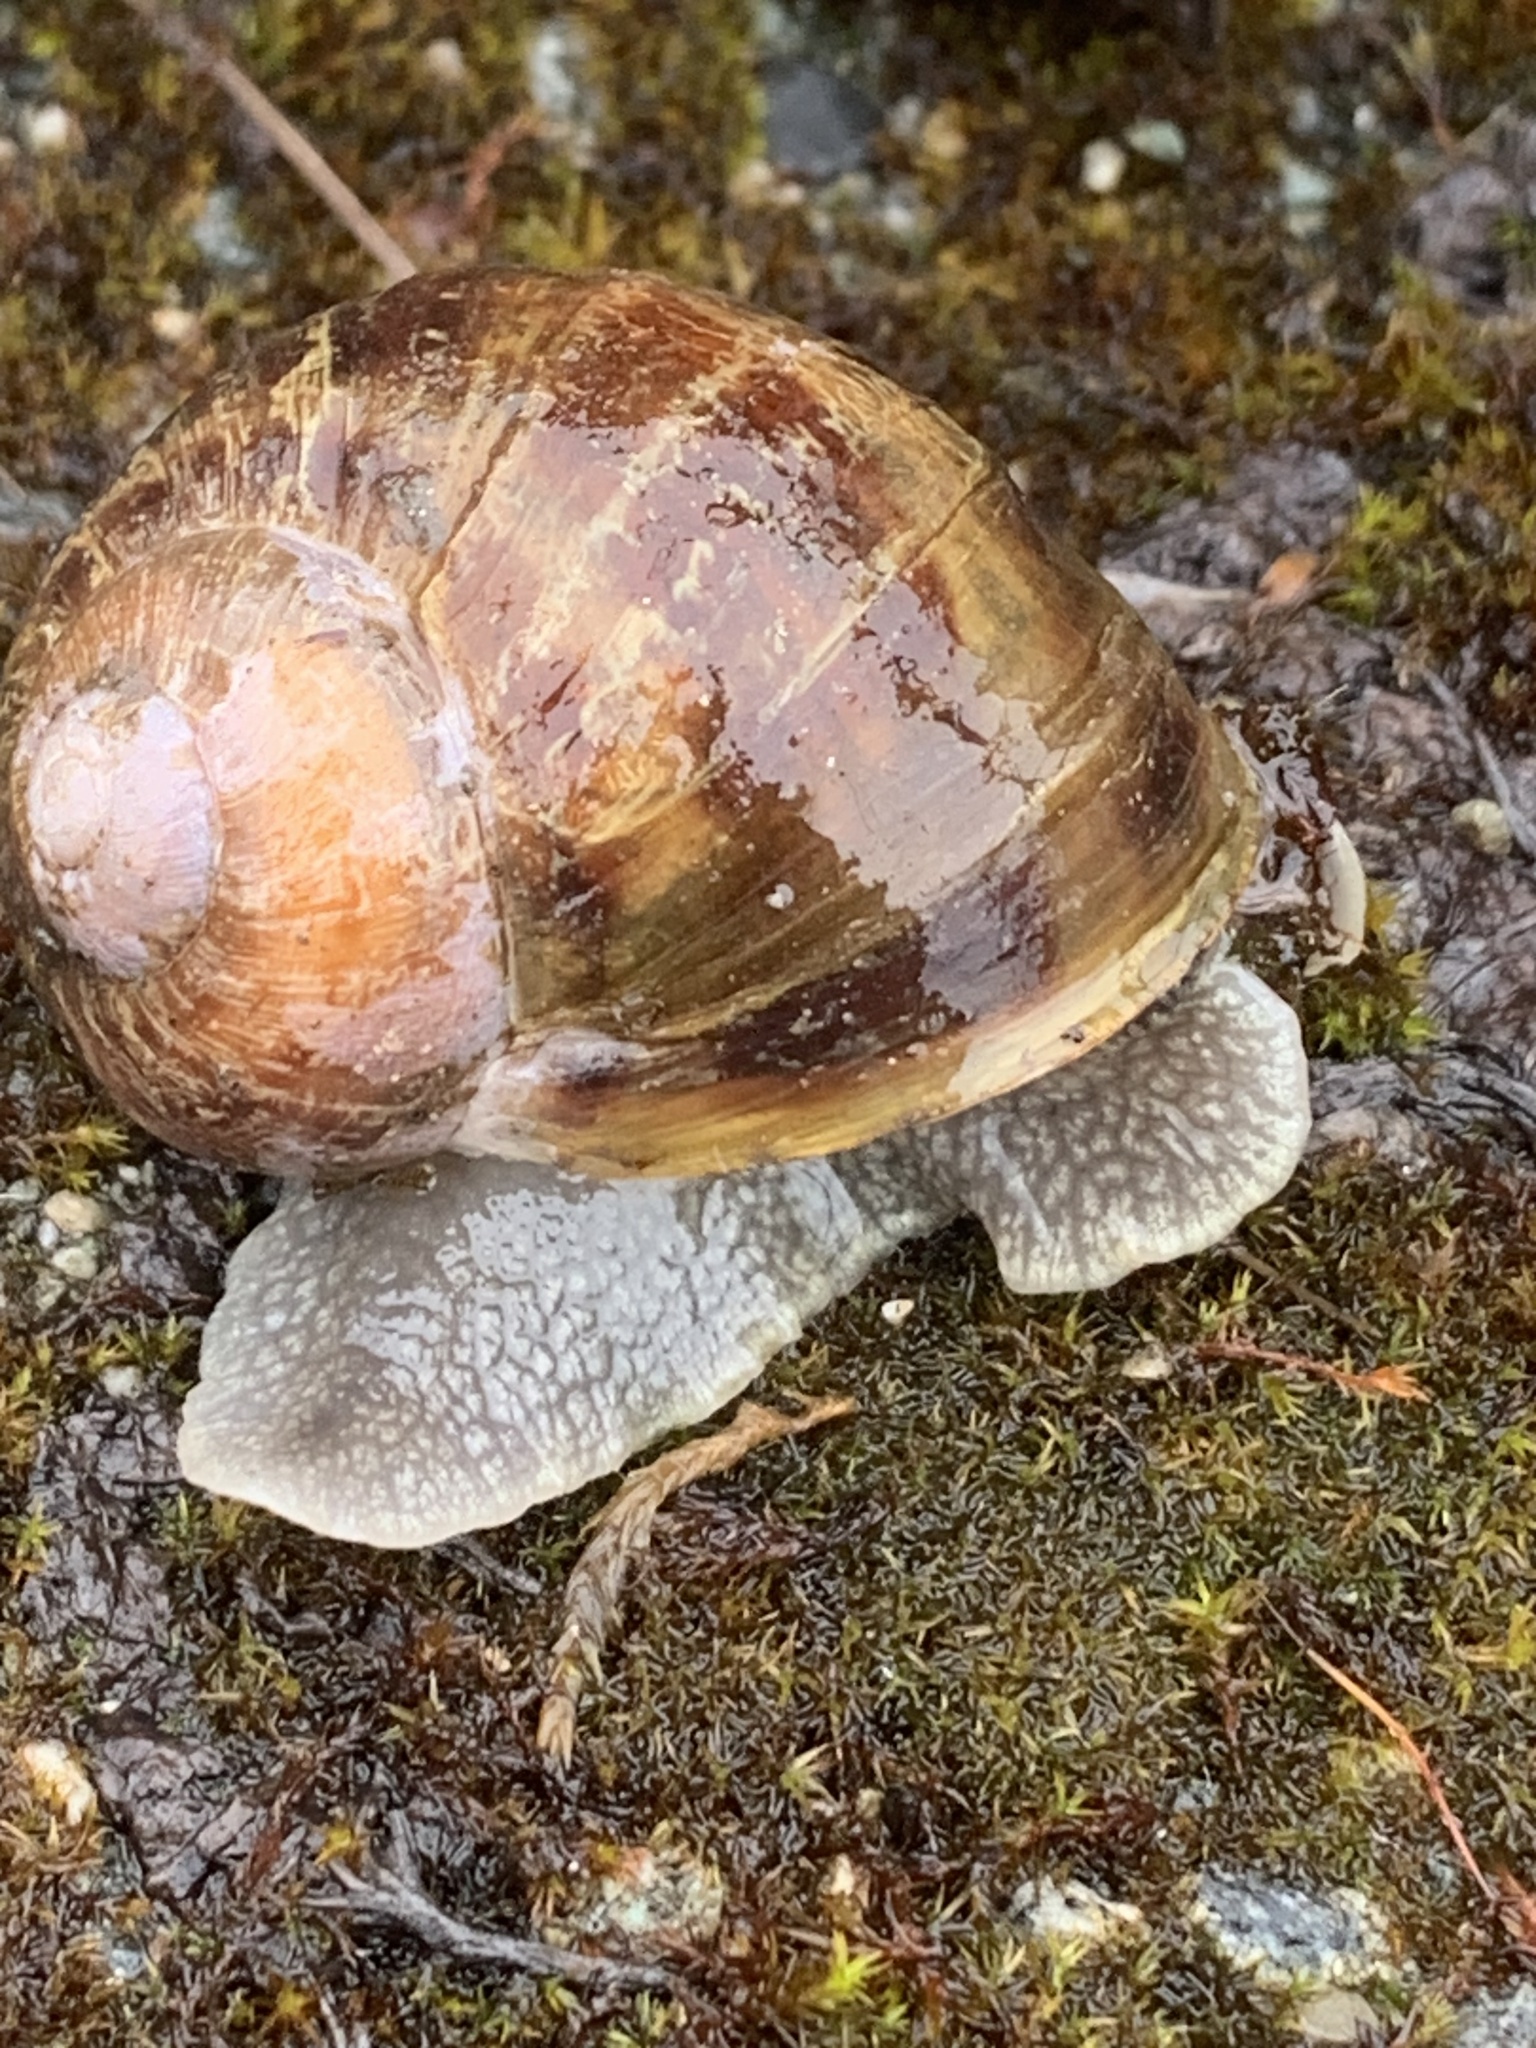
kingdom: Animalia
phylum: Mollusca
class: Gastropoda
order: Stylommatophora
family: Helicidae
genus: Cornu
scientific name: Cornu aspersum
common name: Brown garden snail
